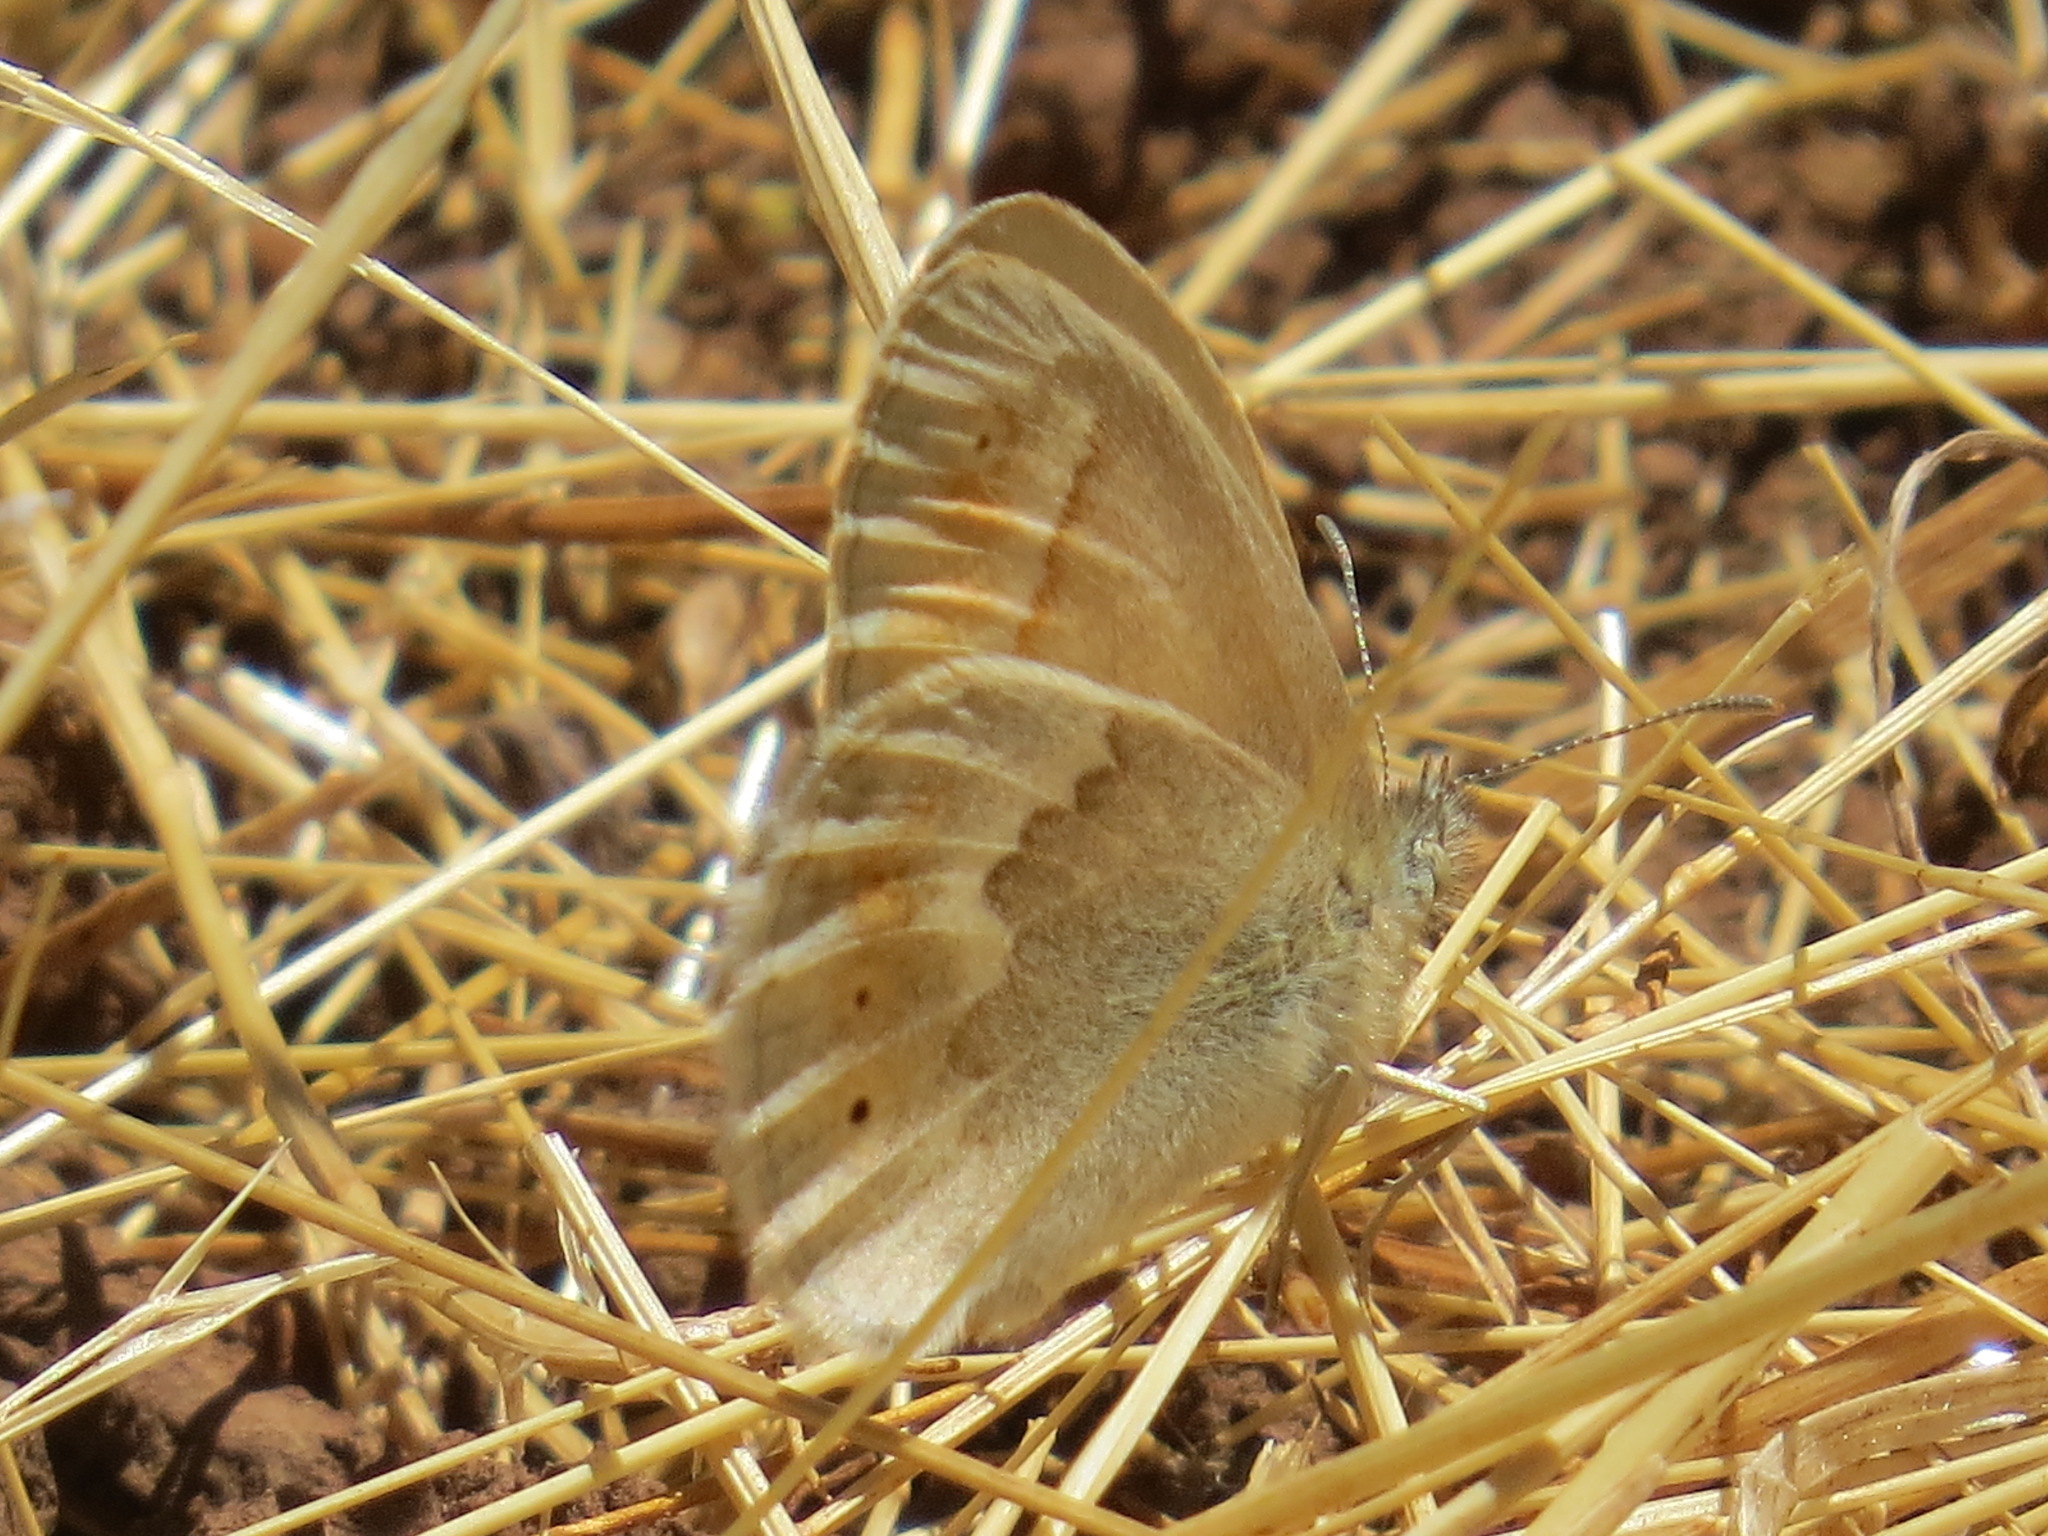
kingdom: Animalia
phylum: Arthropoda
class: Insecta
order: Lepidoptera
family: Nymphalidae
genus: Coenonympha
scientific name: Coenonympha california
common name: Common ringlet
